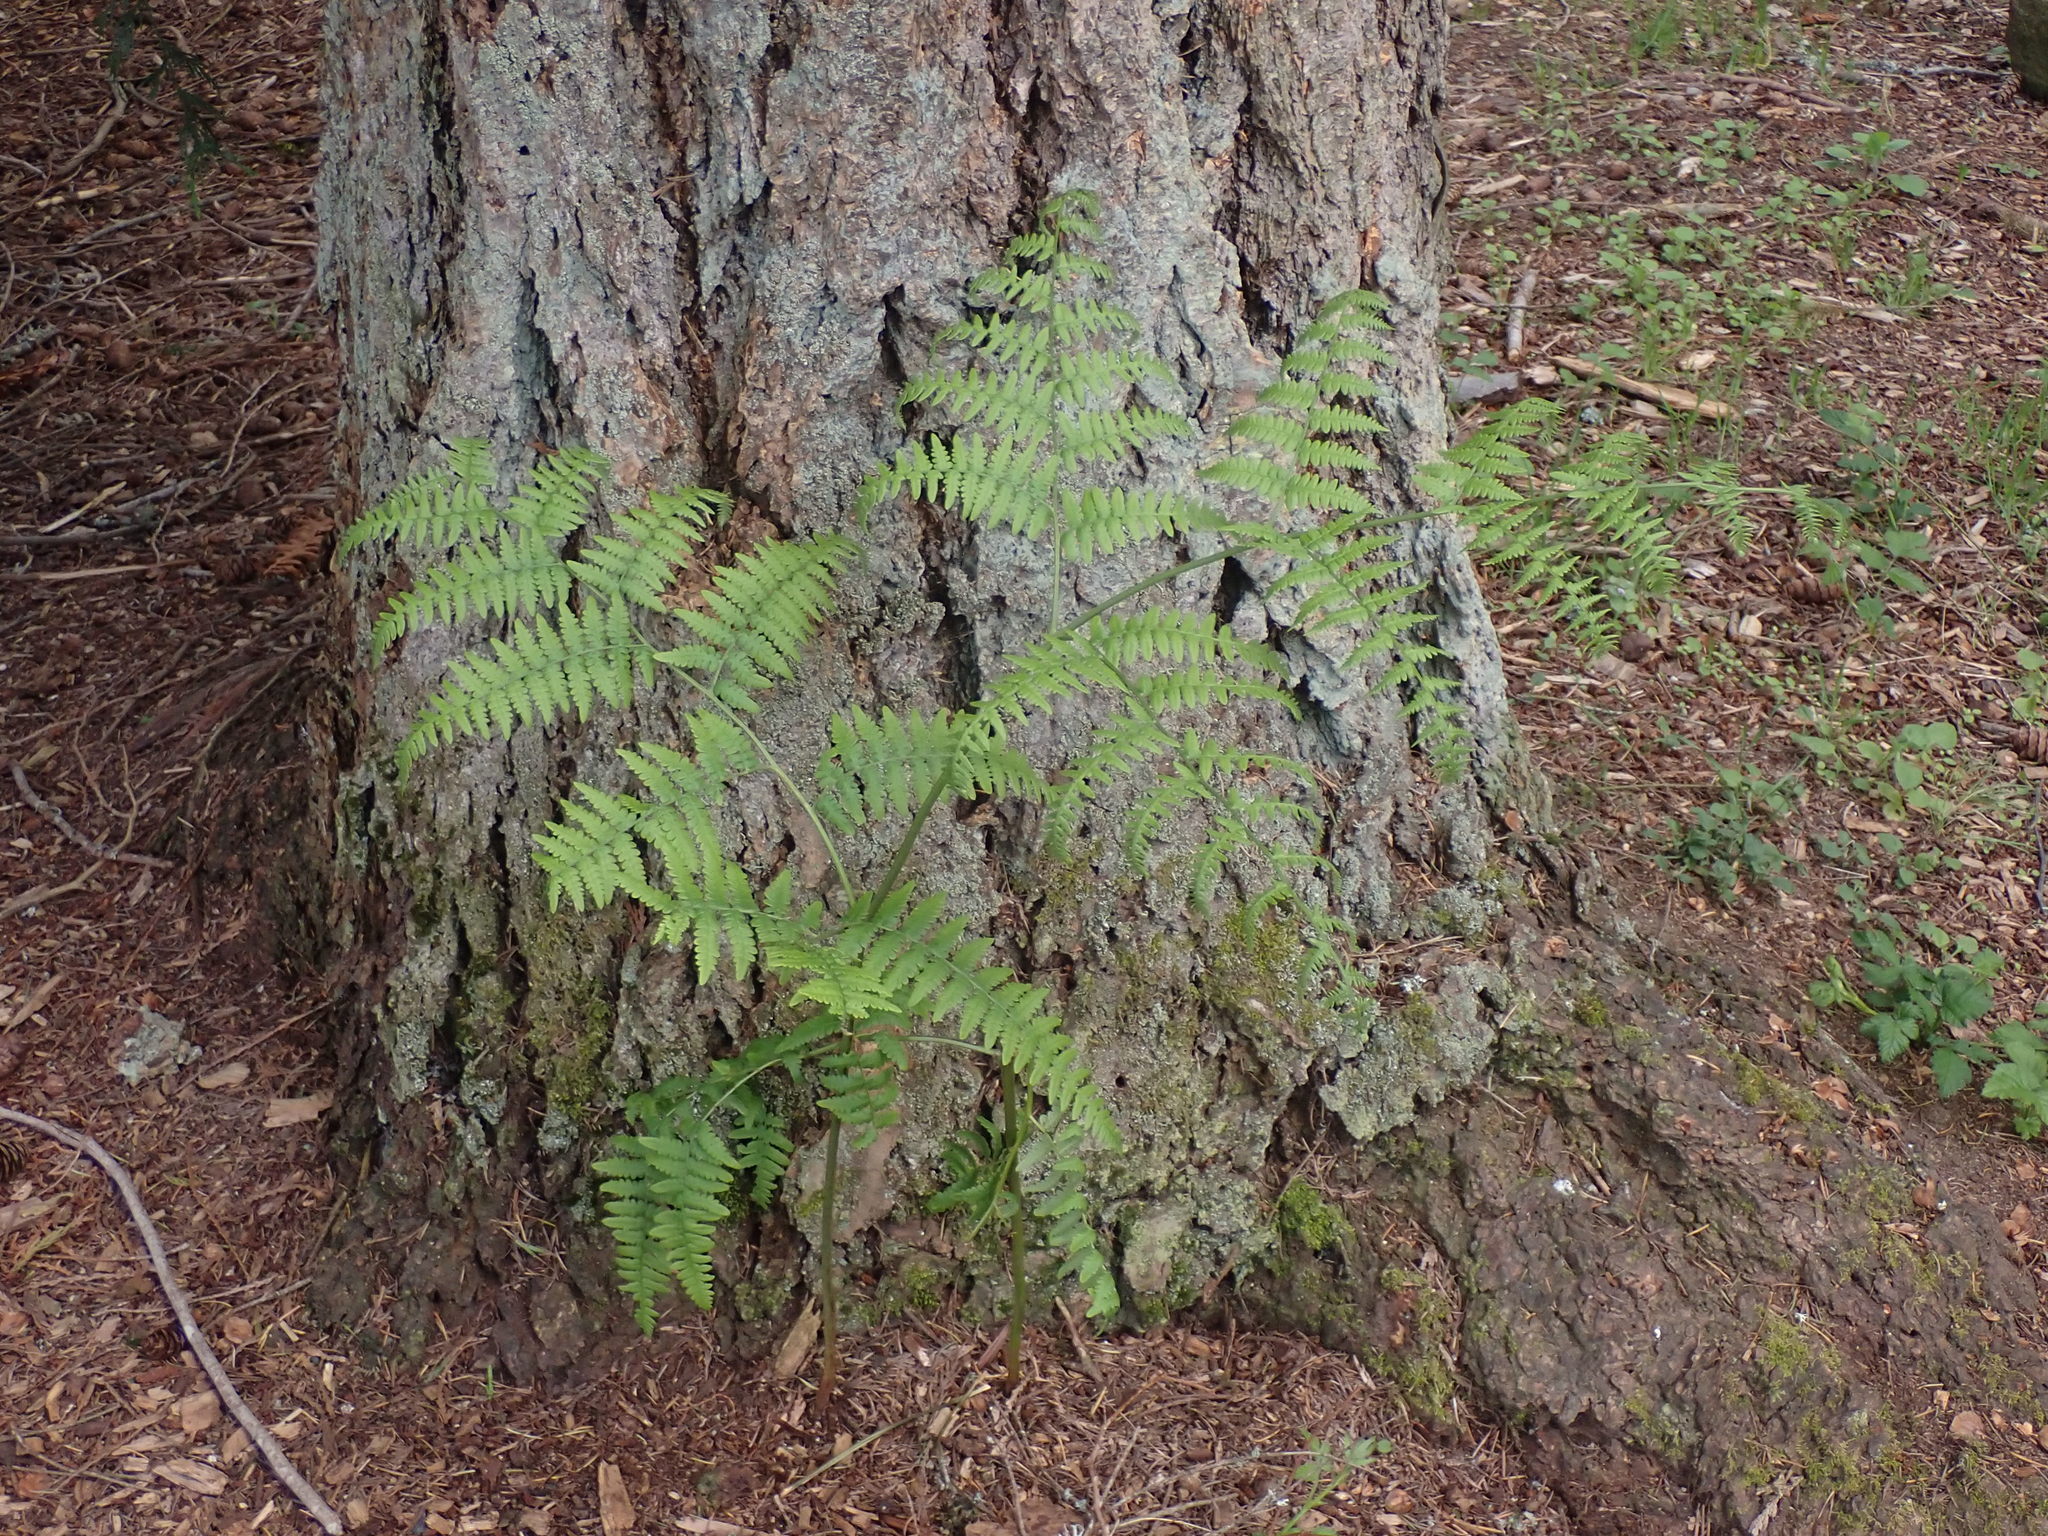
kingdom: Plantae
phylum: Tracheophyta
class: Polypodiopsida
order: Polypodiales
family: Dennstaedtiaceae
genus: Pteridium
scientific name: Pteridium aquilinum
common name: Bracken
